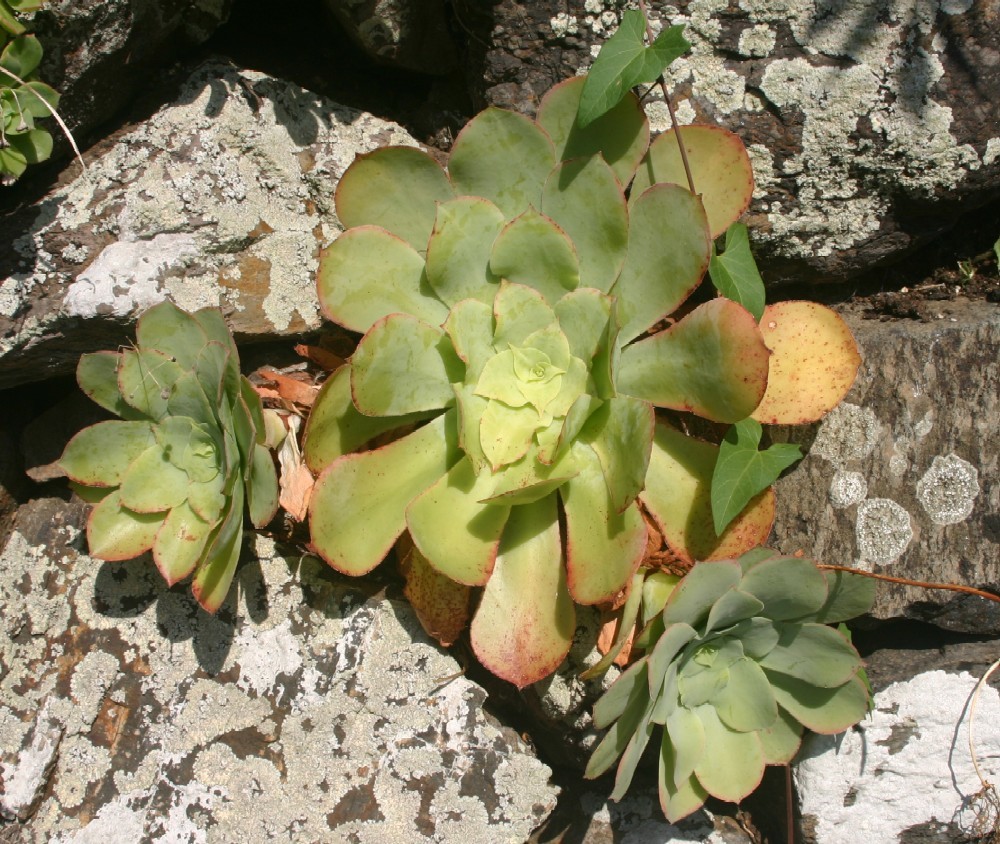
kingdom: Plantae
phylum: Tracheophyta
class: Magnoliopsida
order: Saxifragales
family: Crassulaceae
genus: Aeonium
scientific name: Aeonium cuneatum
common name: Aeonium
